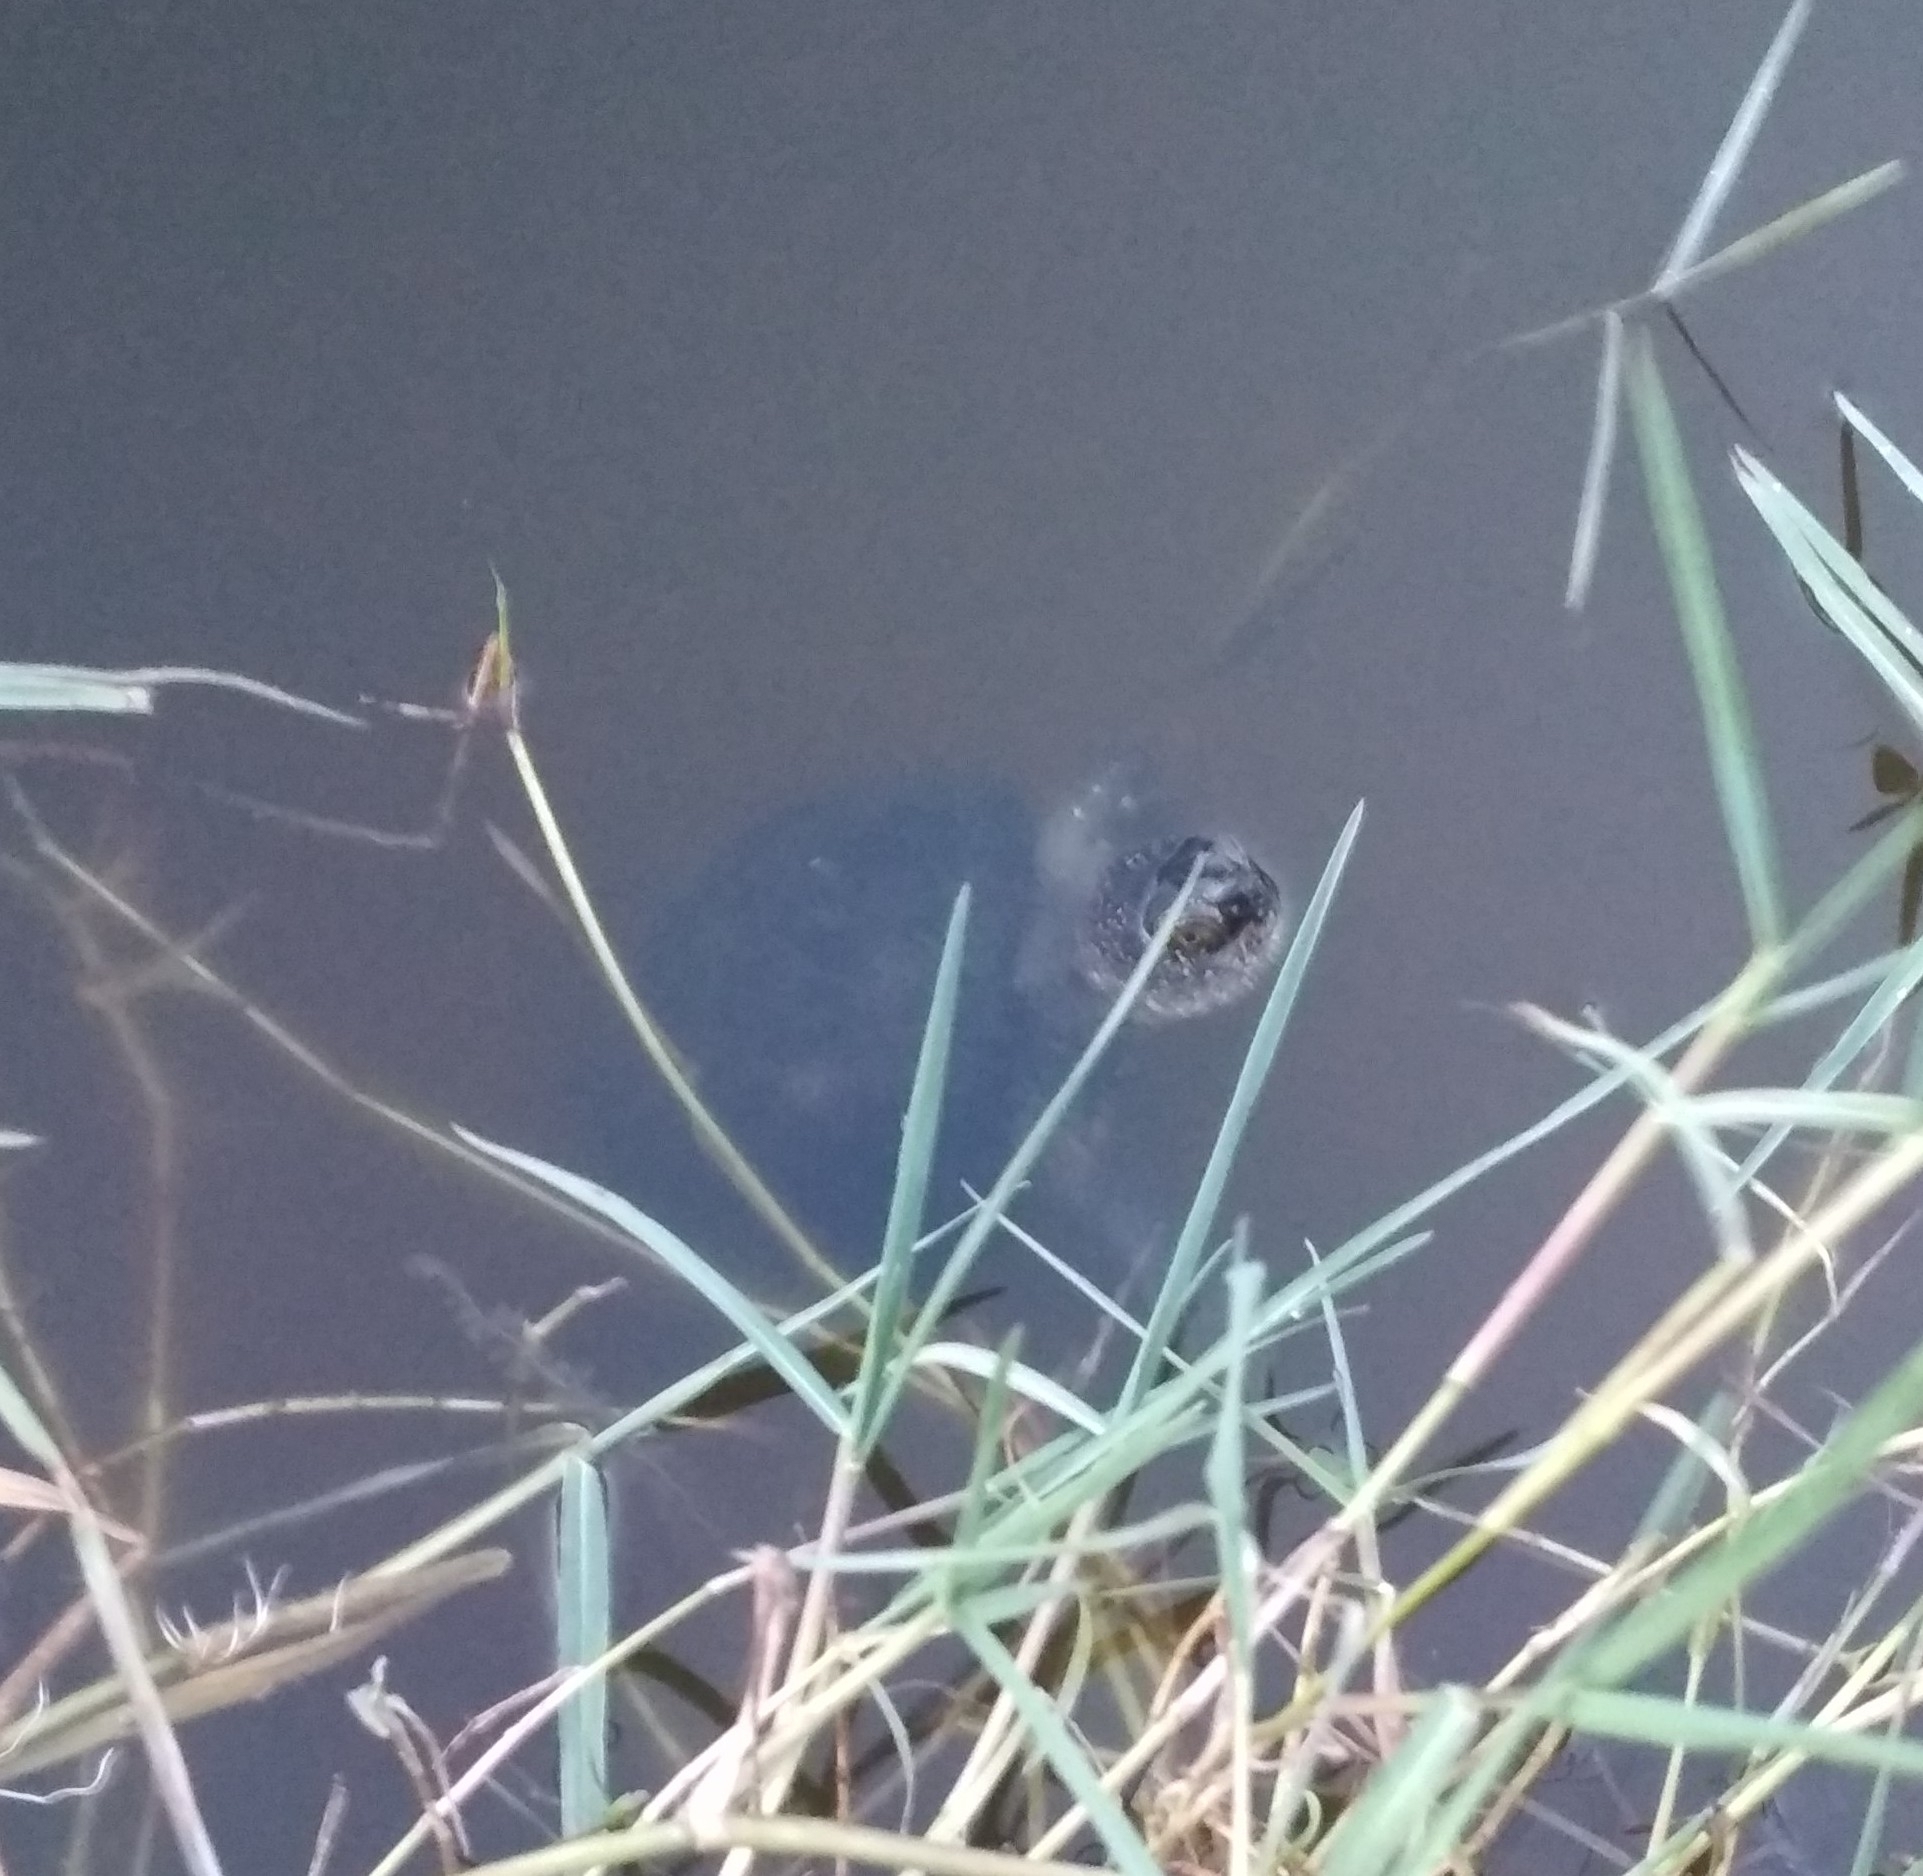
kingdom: Animalia
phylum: Chordata
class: Testudines
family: Emydidae
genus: Emys
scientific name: Emys orbicularis
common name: European pond turtle
